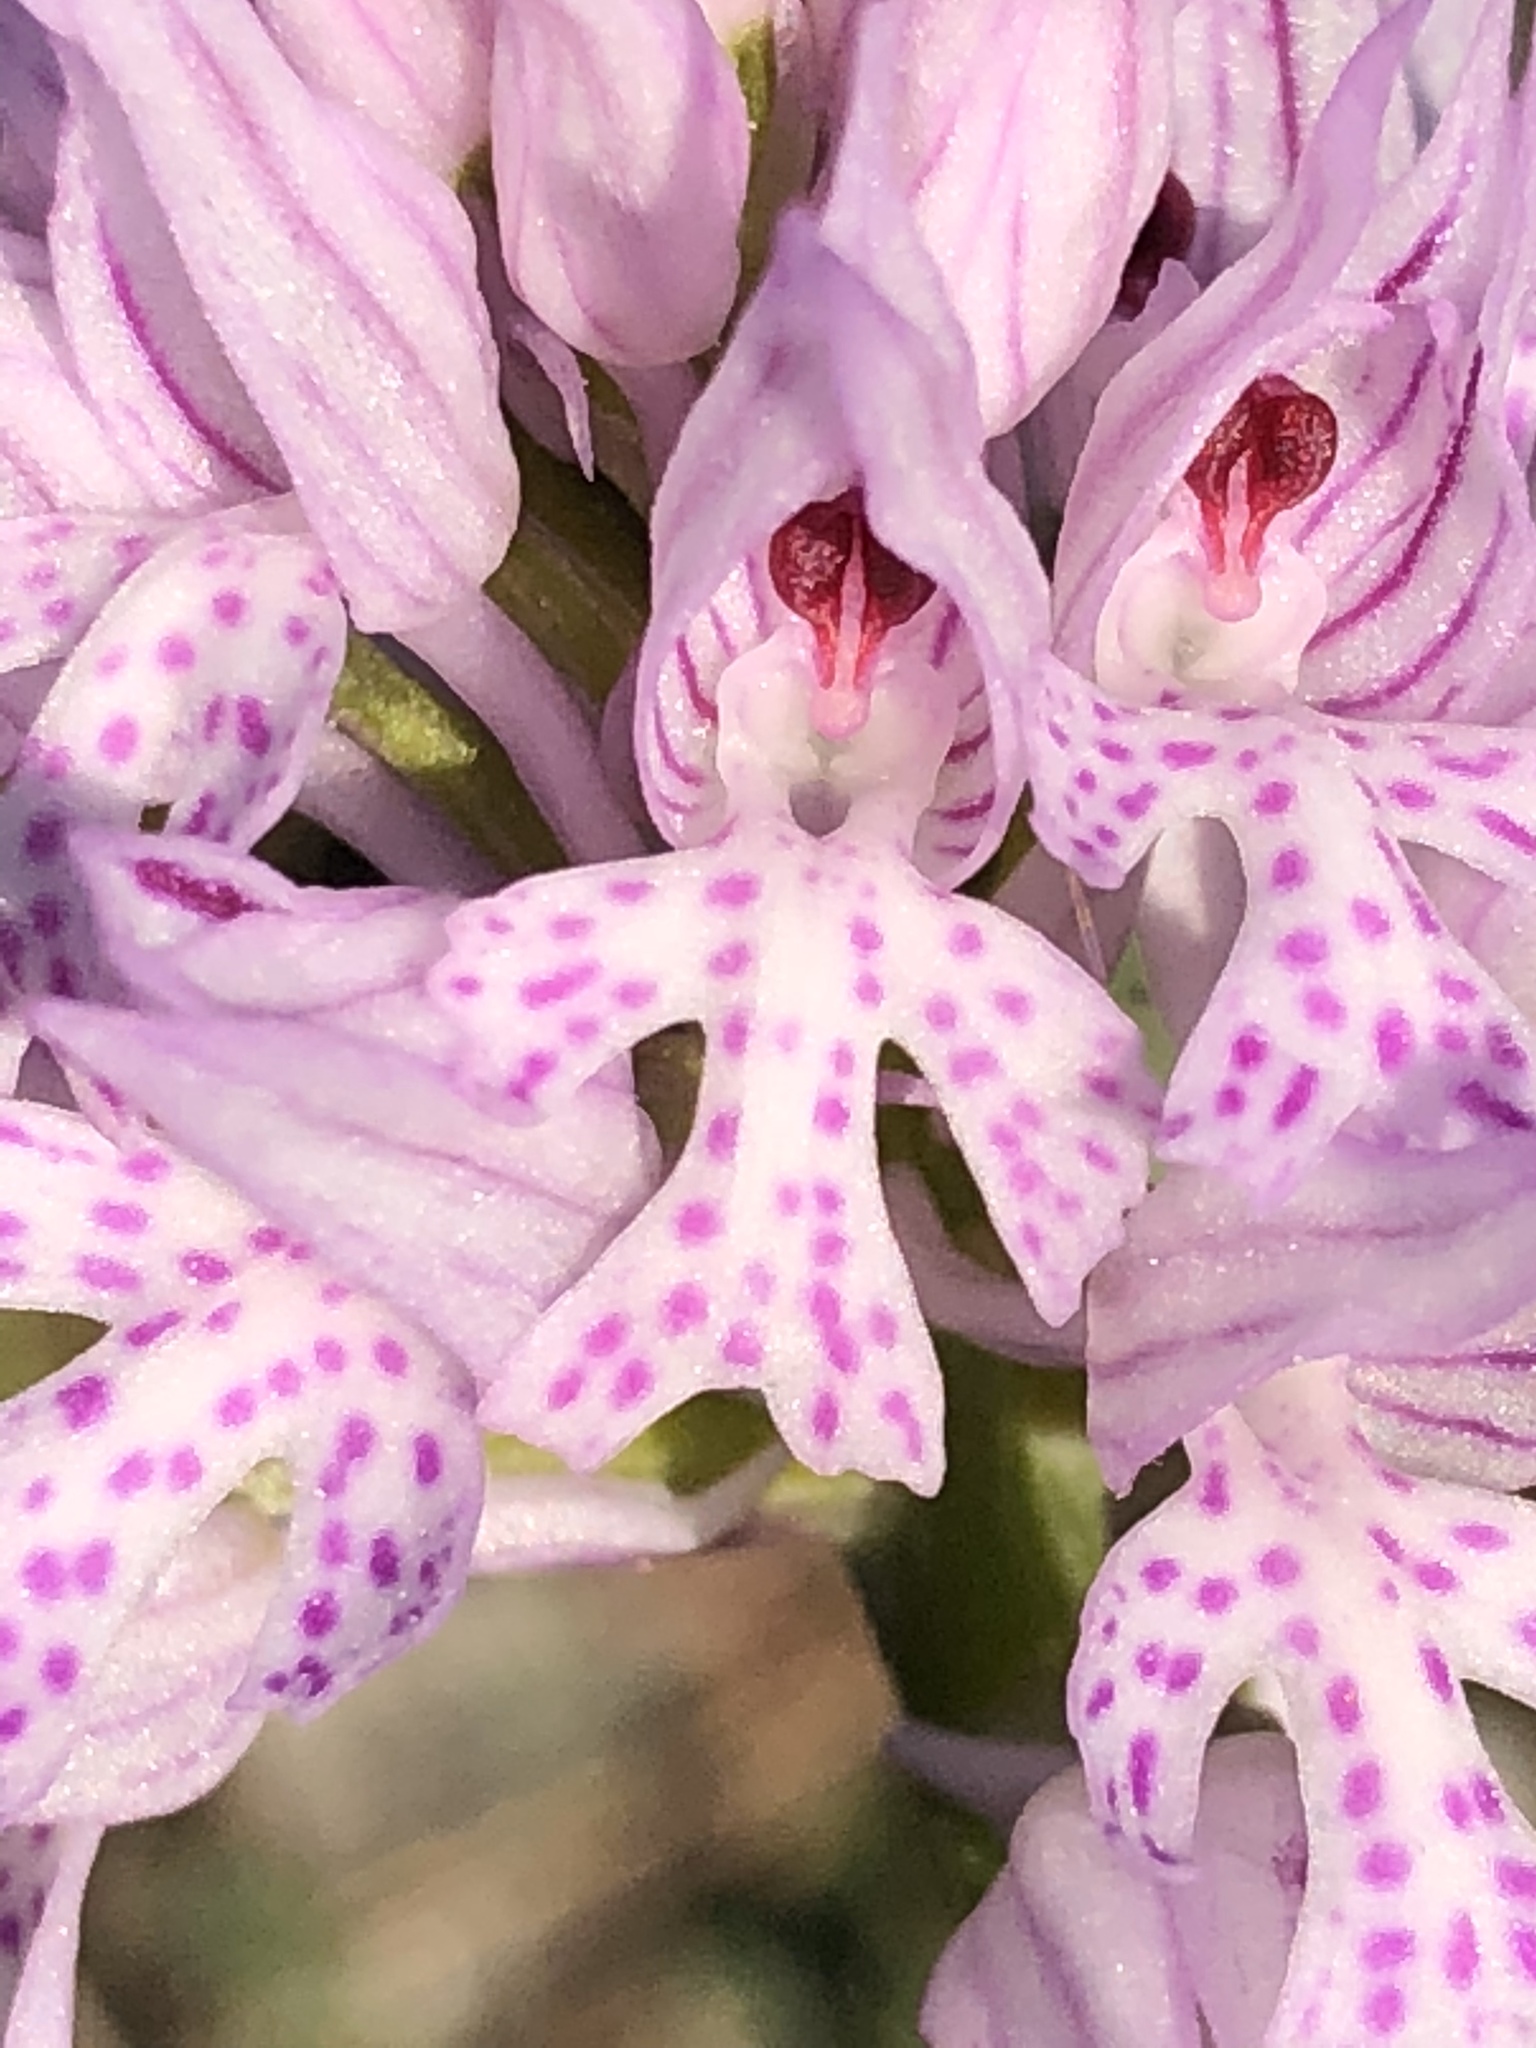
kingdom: Plantae
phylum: Tracheophyta
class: Liliopsida
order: Asparagales
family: Orchidaceae
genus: Neotinea
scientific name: Neotinea tridentata
